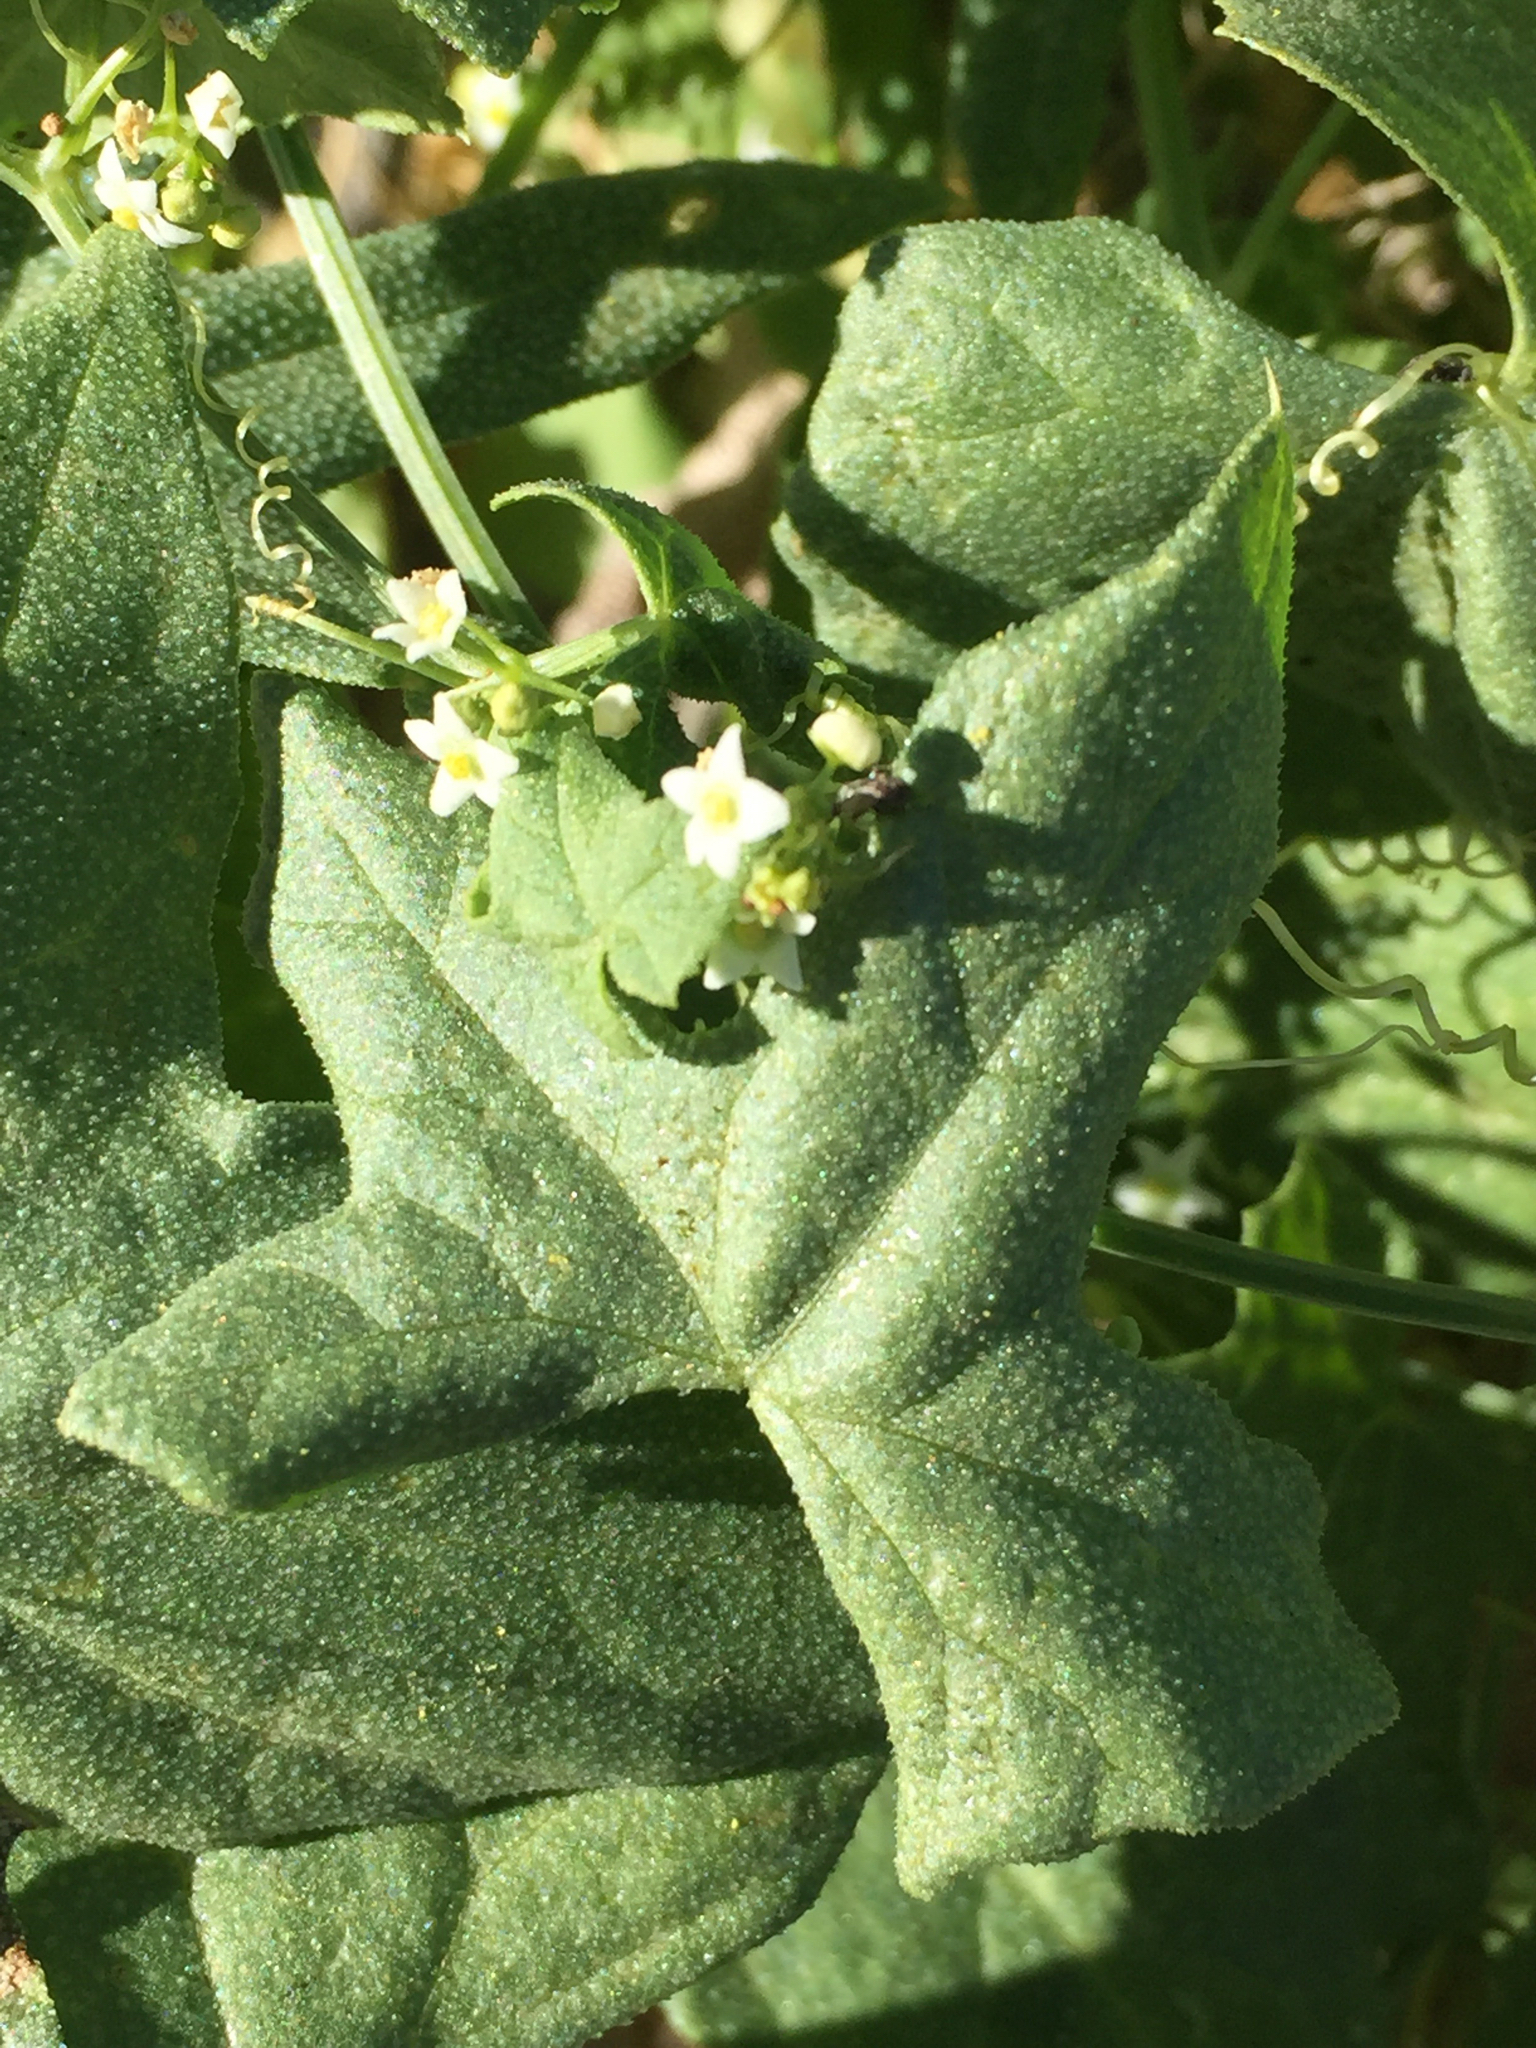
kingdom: Plantae
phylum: Tracheophyta
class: Magnoliopsida
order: Cucurbitales
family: Cucurbitaceae
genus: Echinopepon
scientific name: Echinopepon bigelovii
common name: Desert starvine
